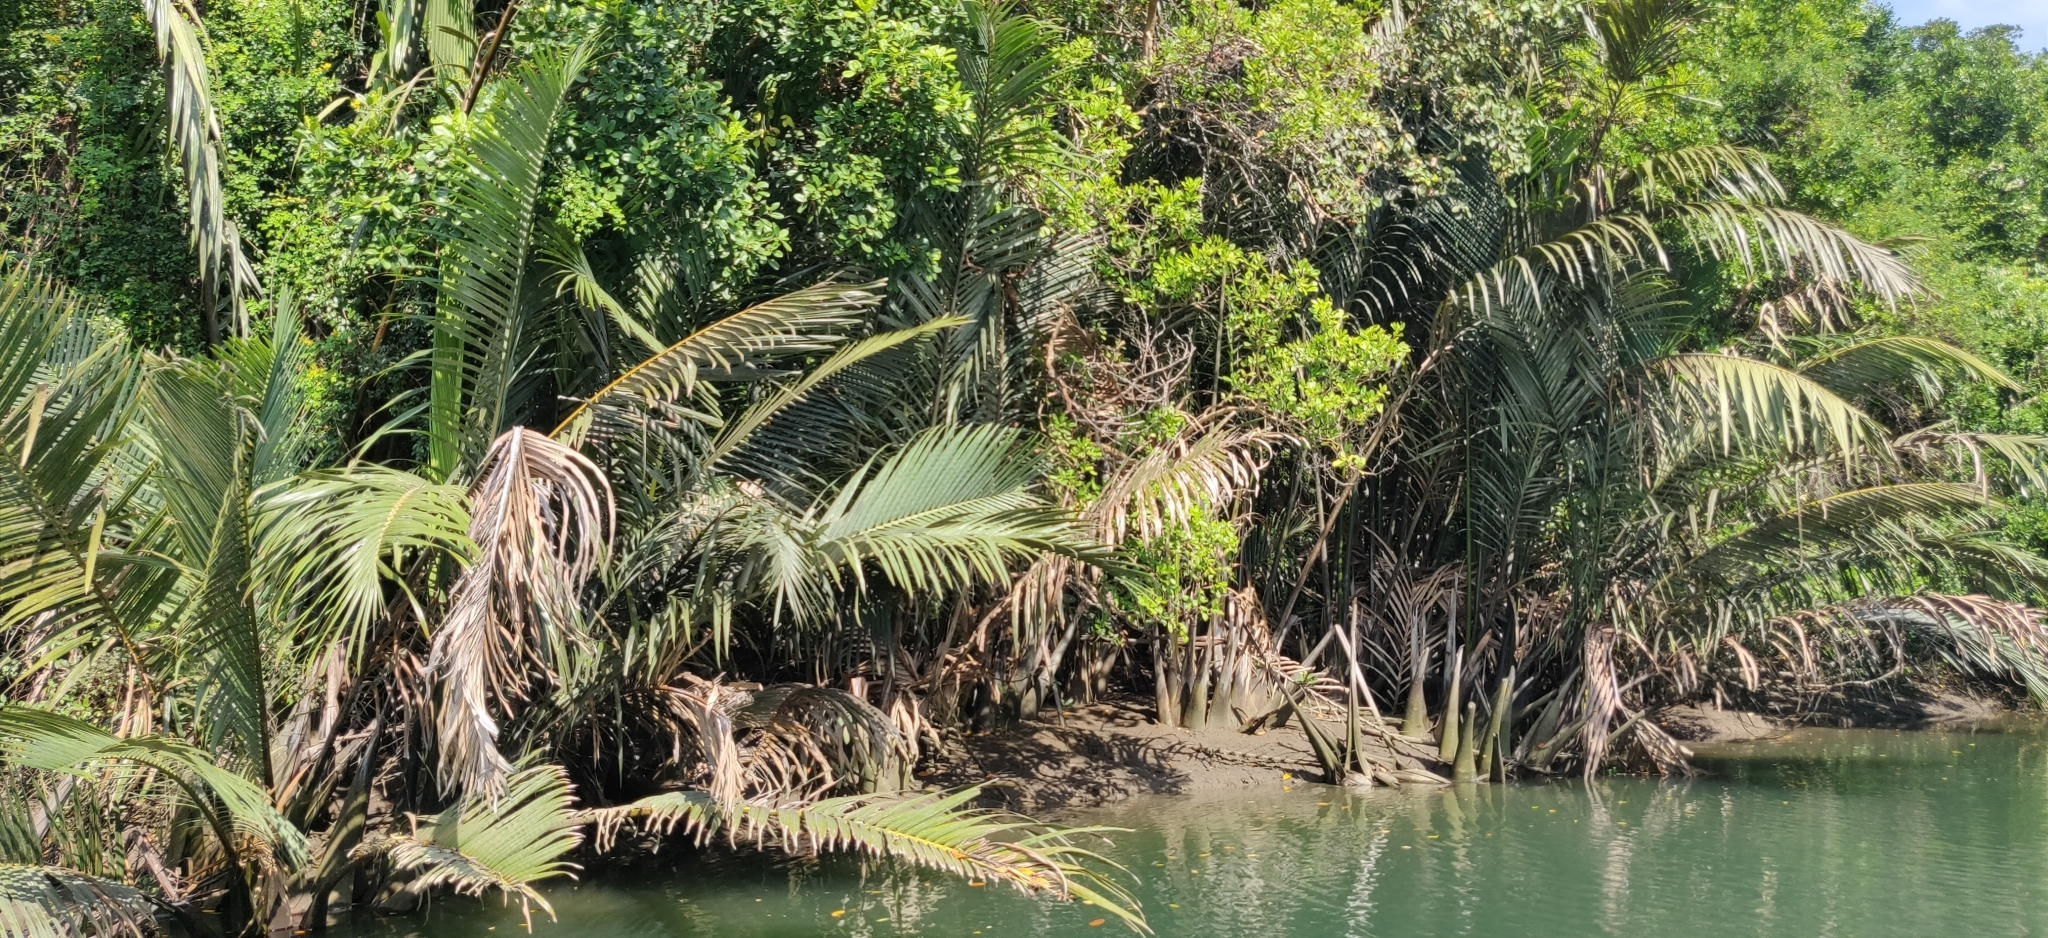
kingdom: Plantae
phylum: Tracheophyta
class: Liliopsida
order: Arecales
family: Arecaceae
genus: Nypa
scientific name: Nypa fruticans
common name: Mangrove palm
